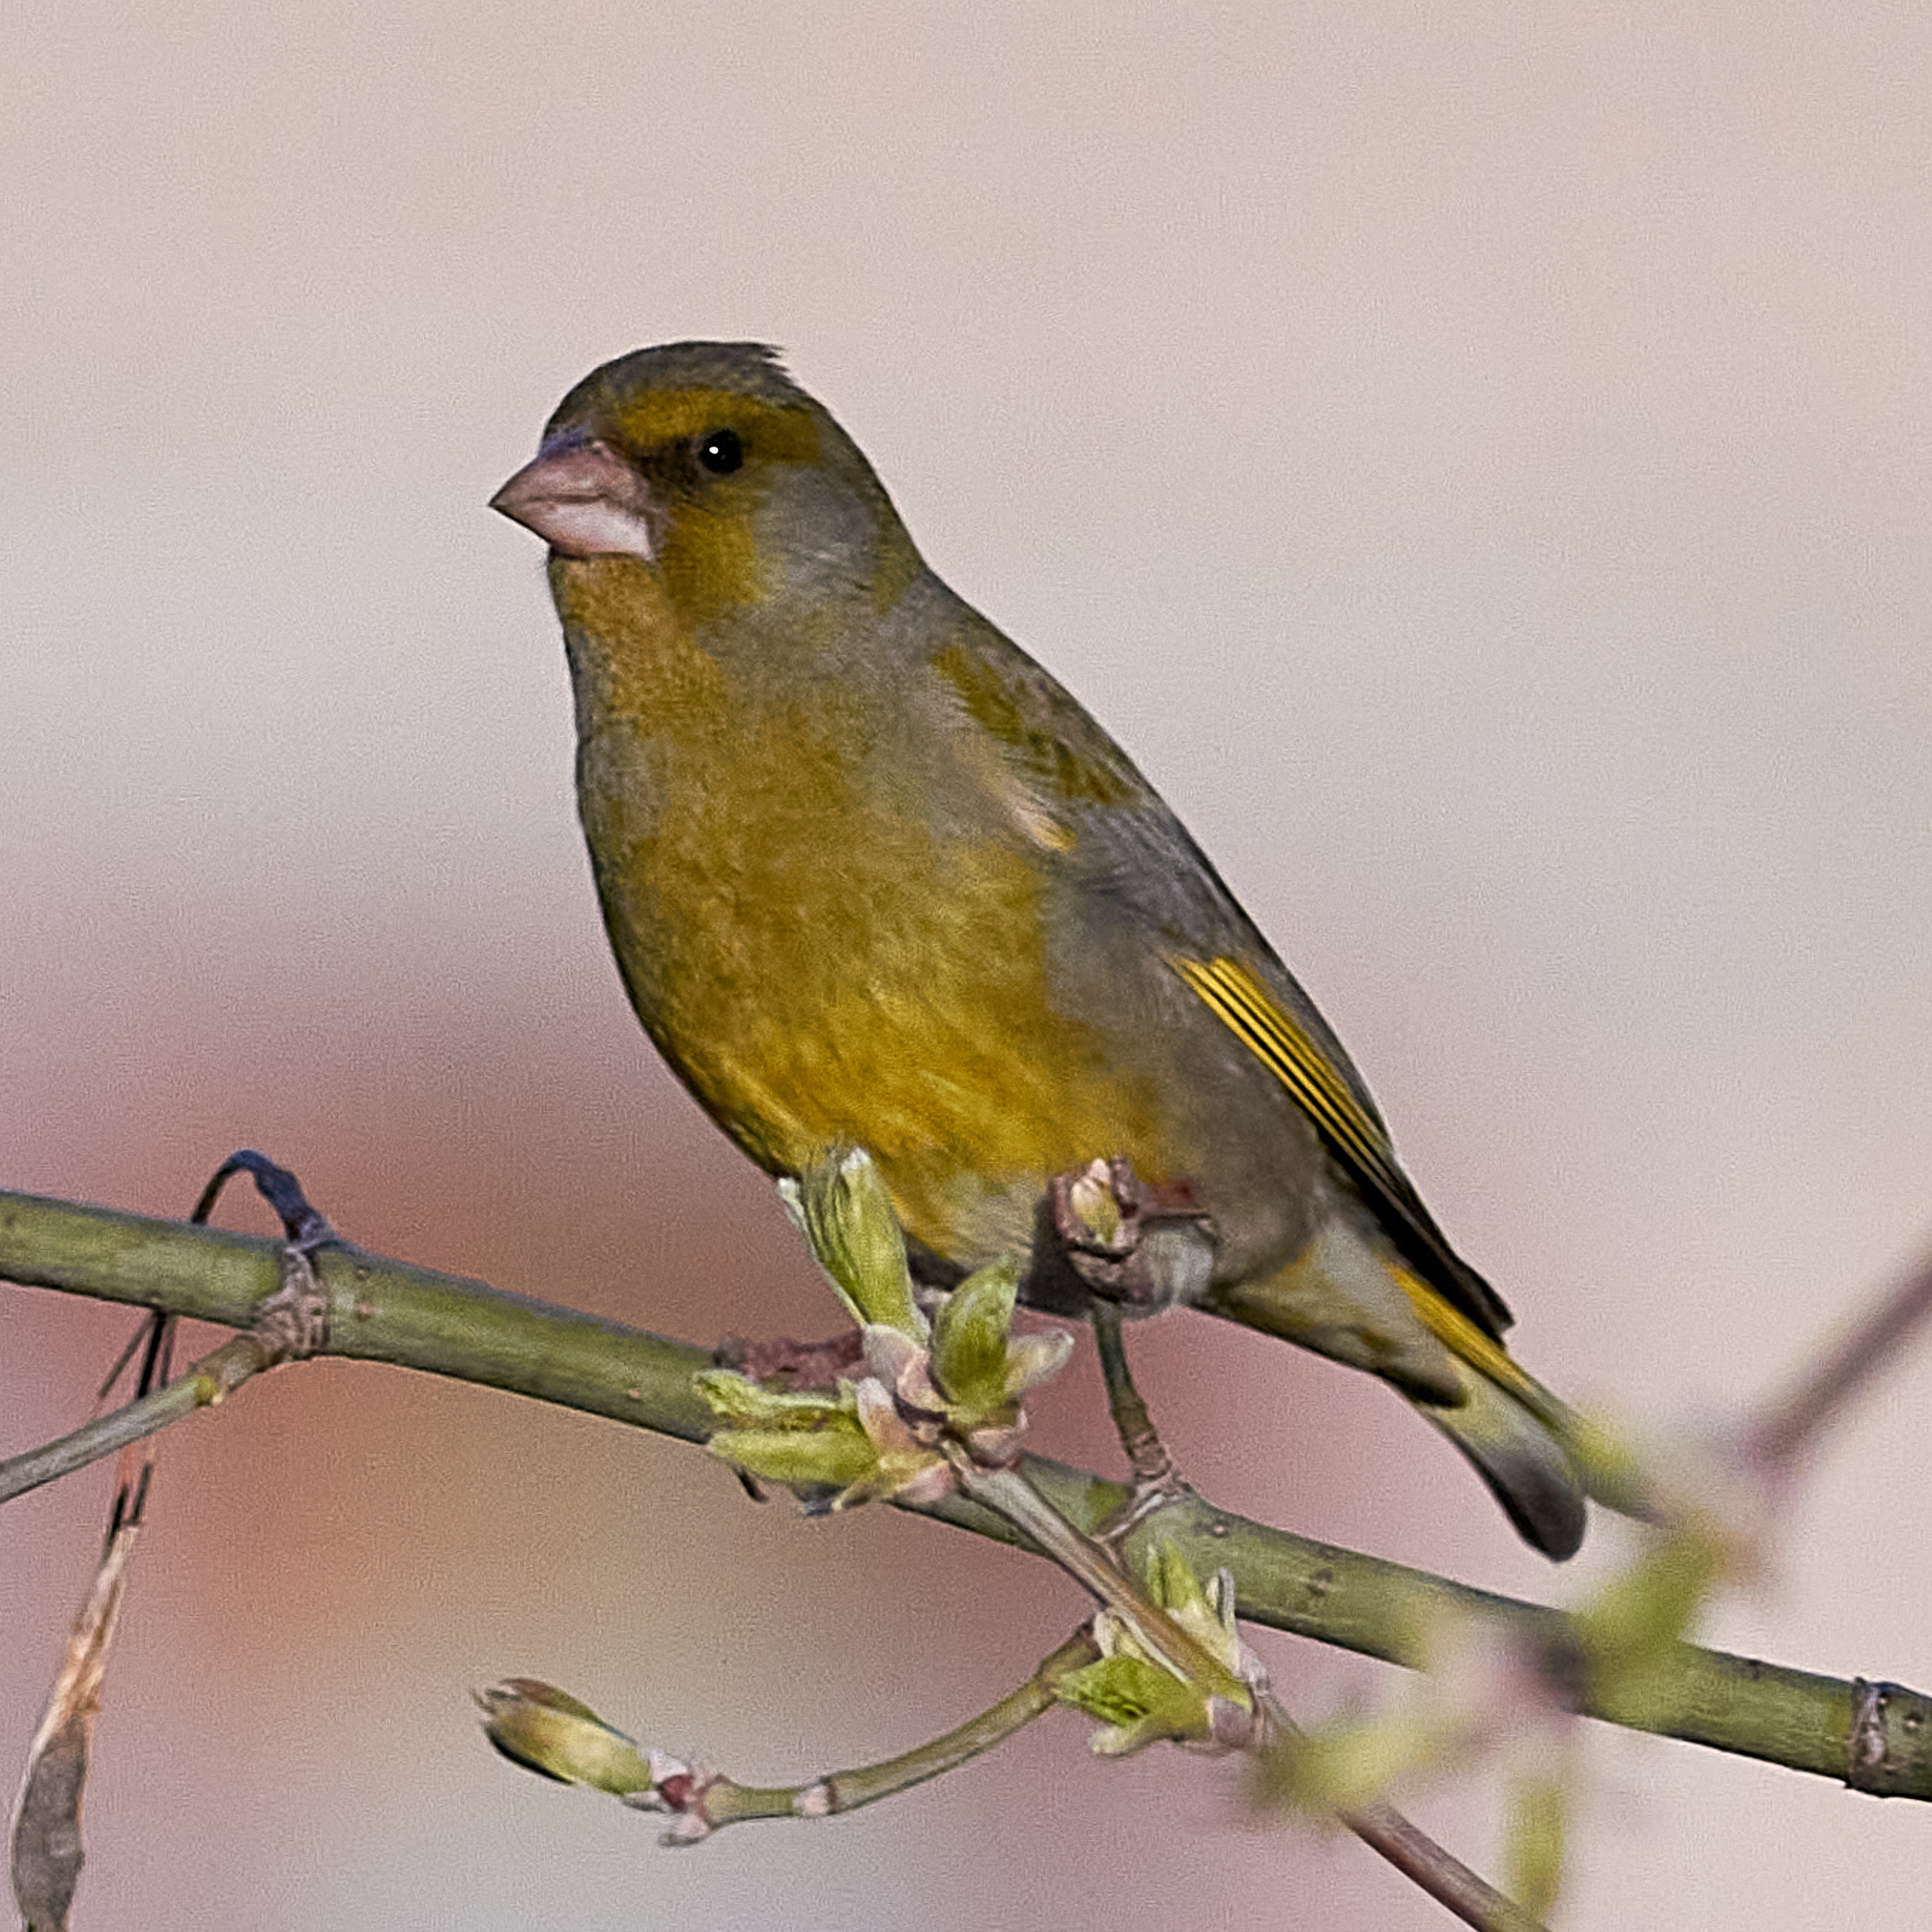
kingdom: Plantae
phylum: Tracheophyta
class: Liliopsida
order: Poales
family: Poaceae
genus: Chloris
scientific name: Chloris chloris
